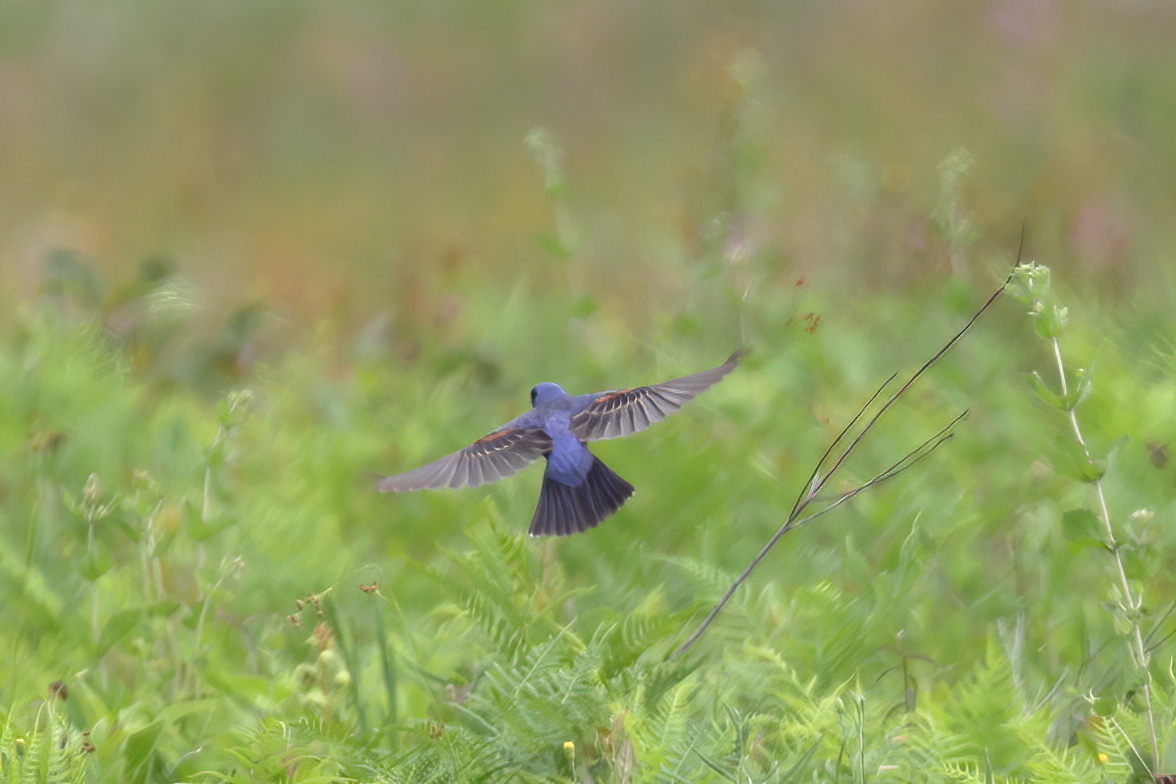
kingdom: Animalia
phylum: Chordata
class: Aves
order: Passeriformes
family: Cardinalidae
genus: Passerina
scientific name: Passerina caerulea
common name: Blue grosbeak
